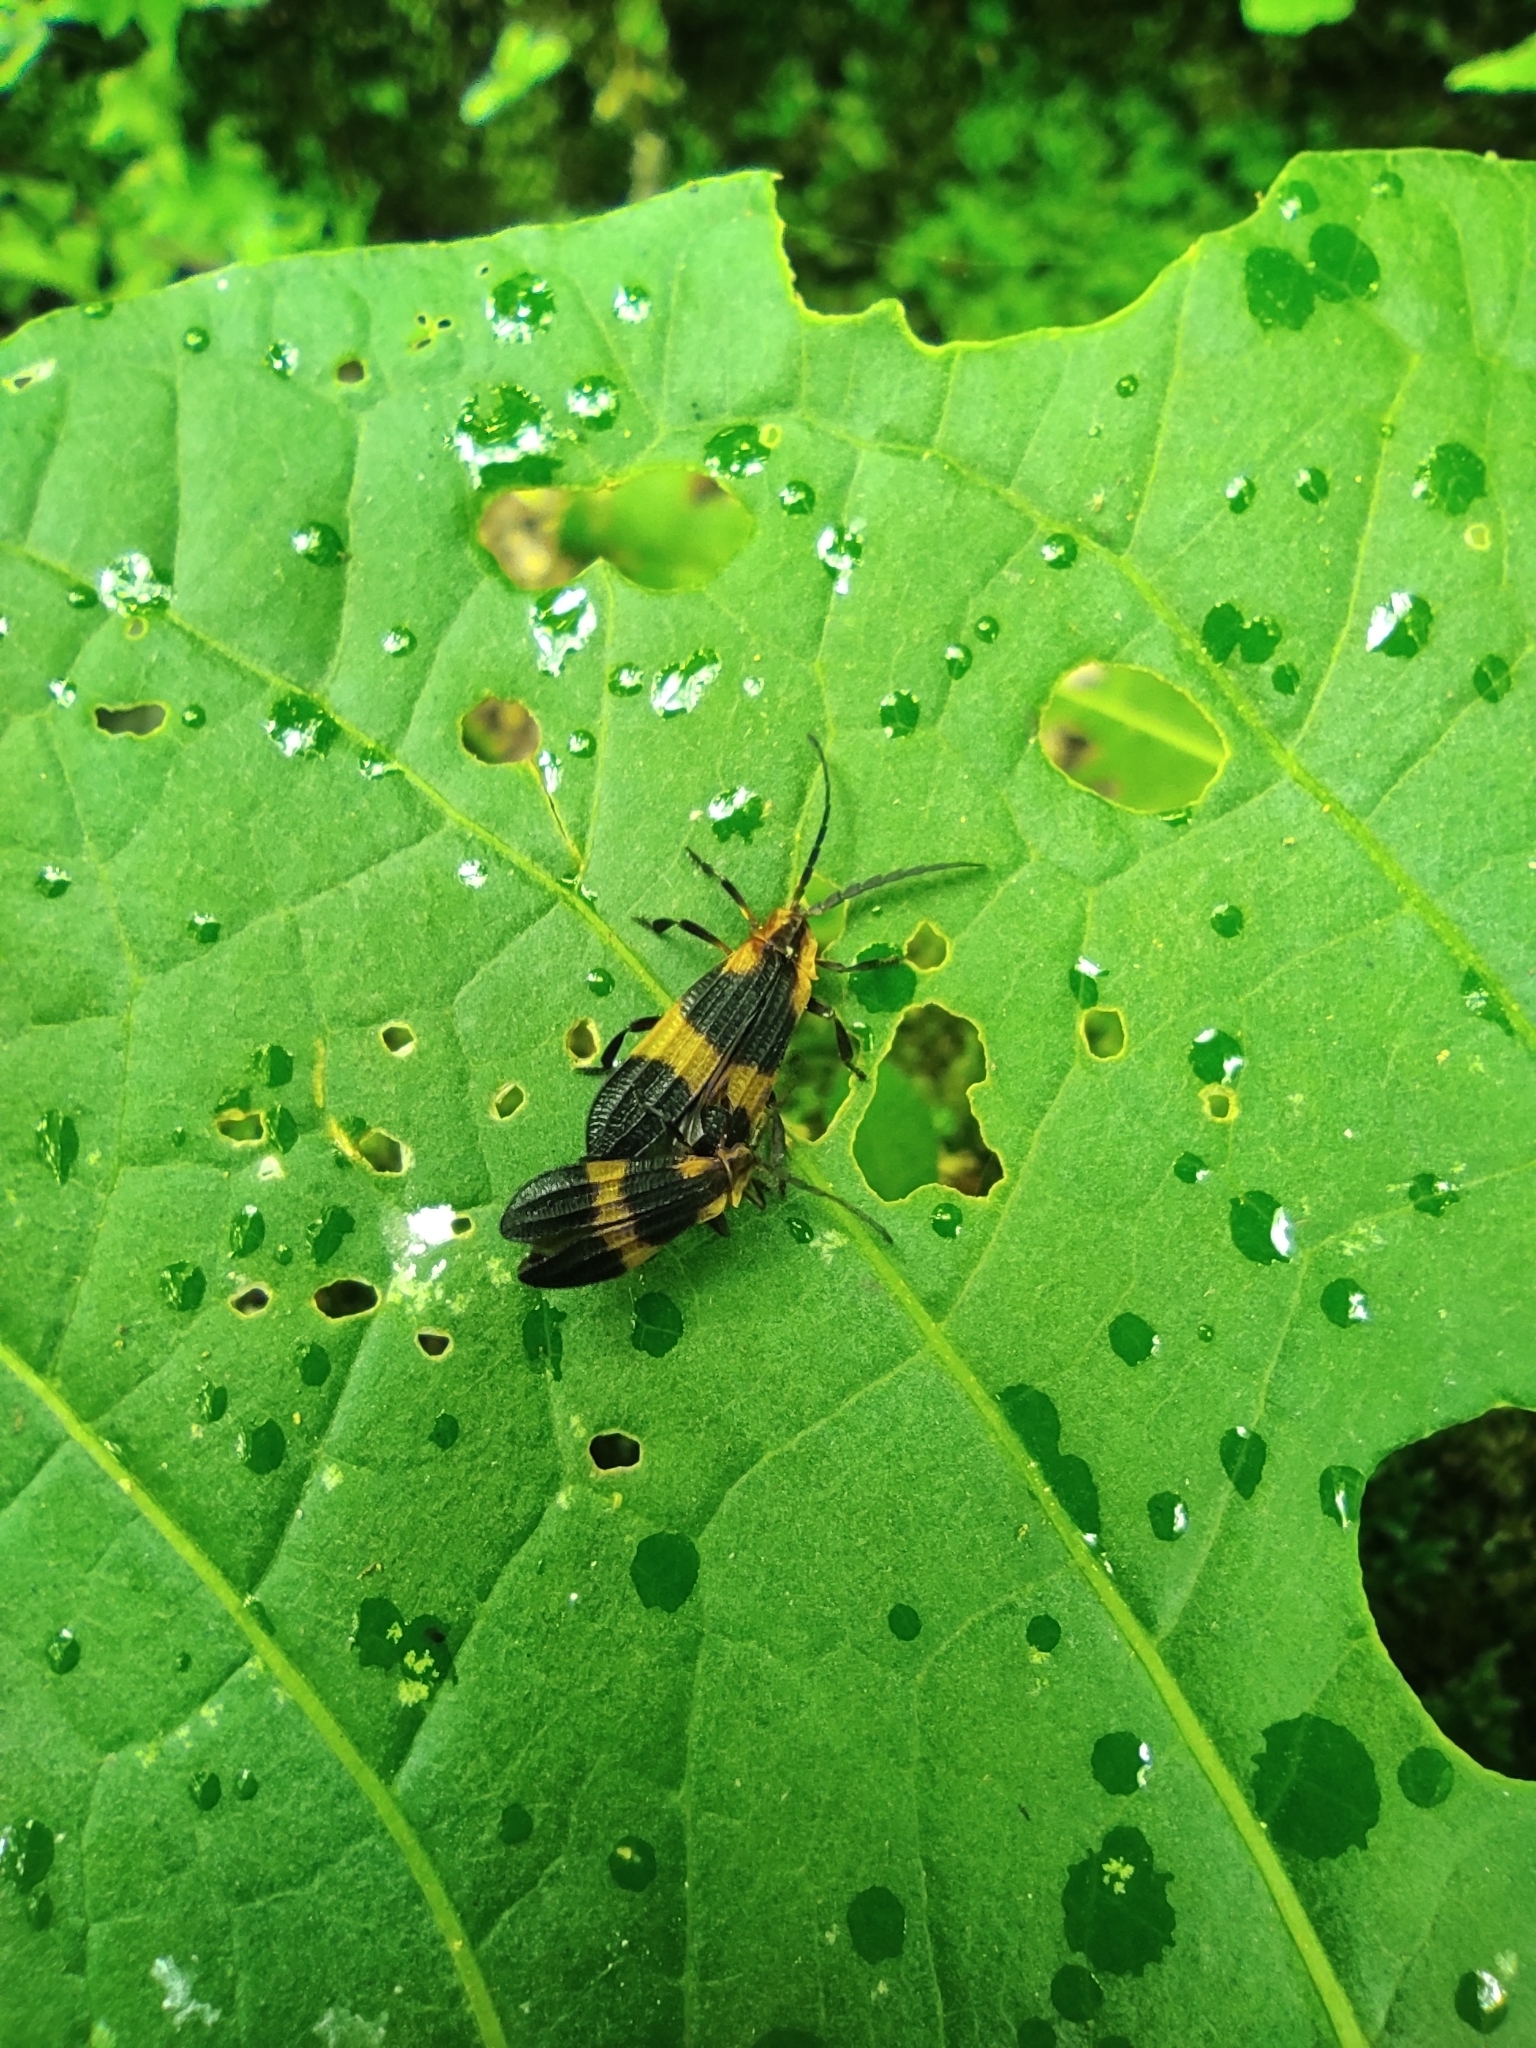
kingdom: Animalia
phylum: Arthropoda
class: Insecta
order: Coleoptera
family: Lycidae
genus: Calopteron
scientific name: Calopteron
